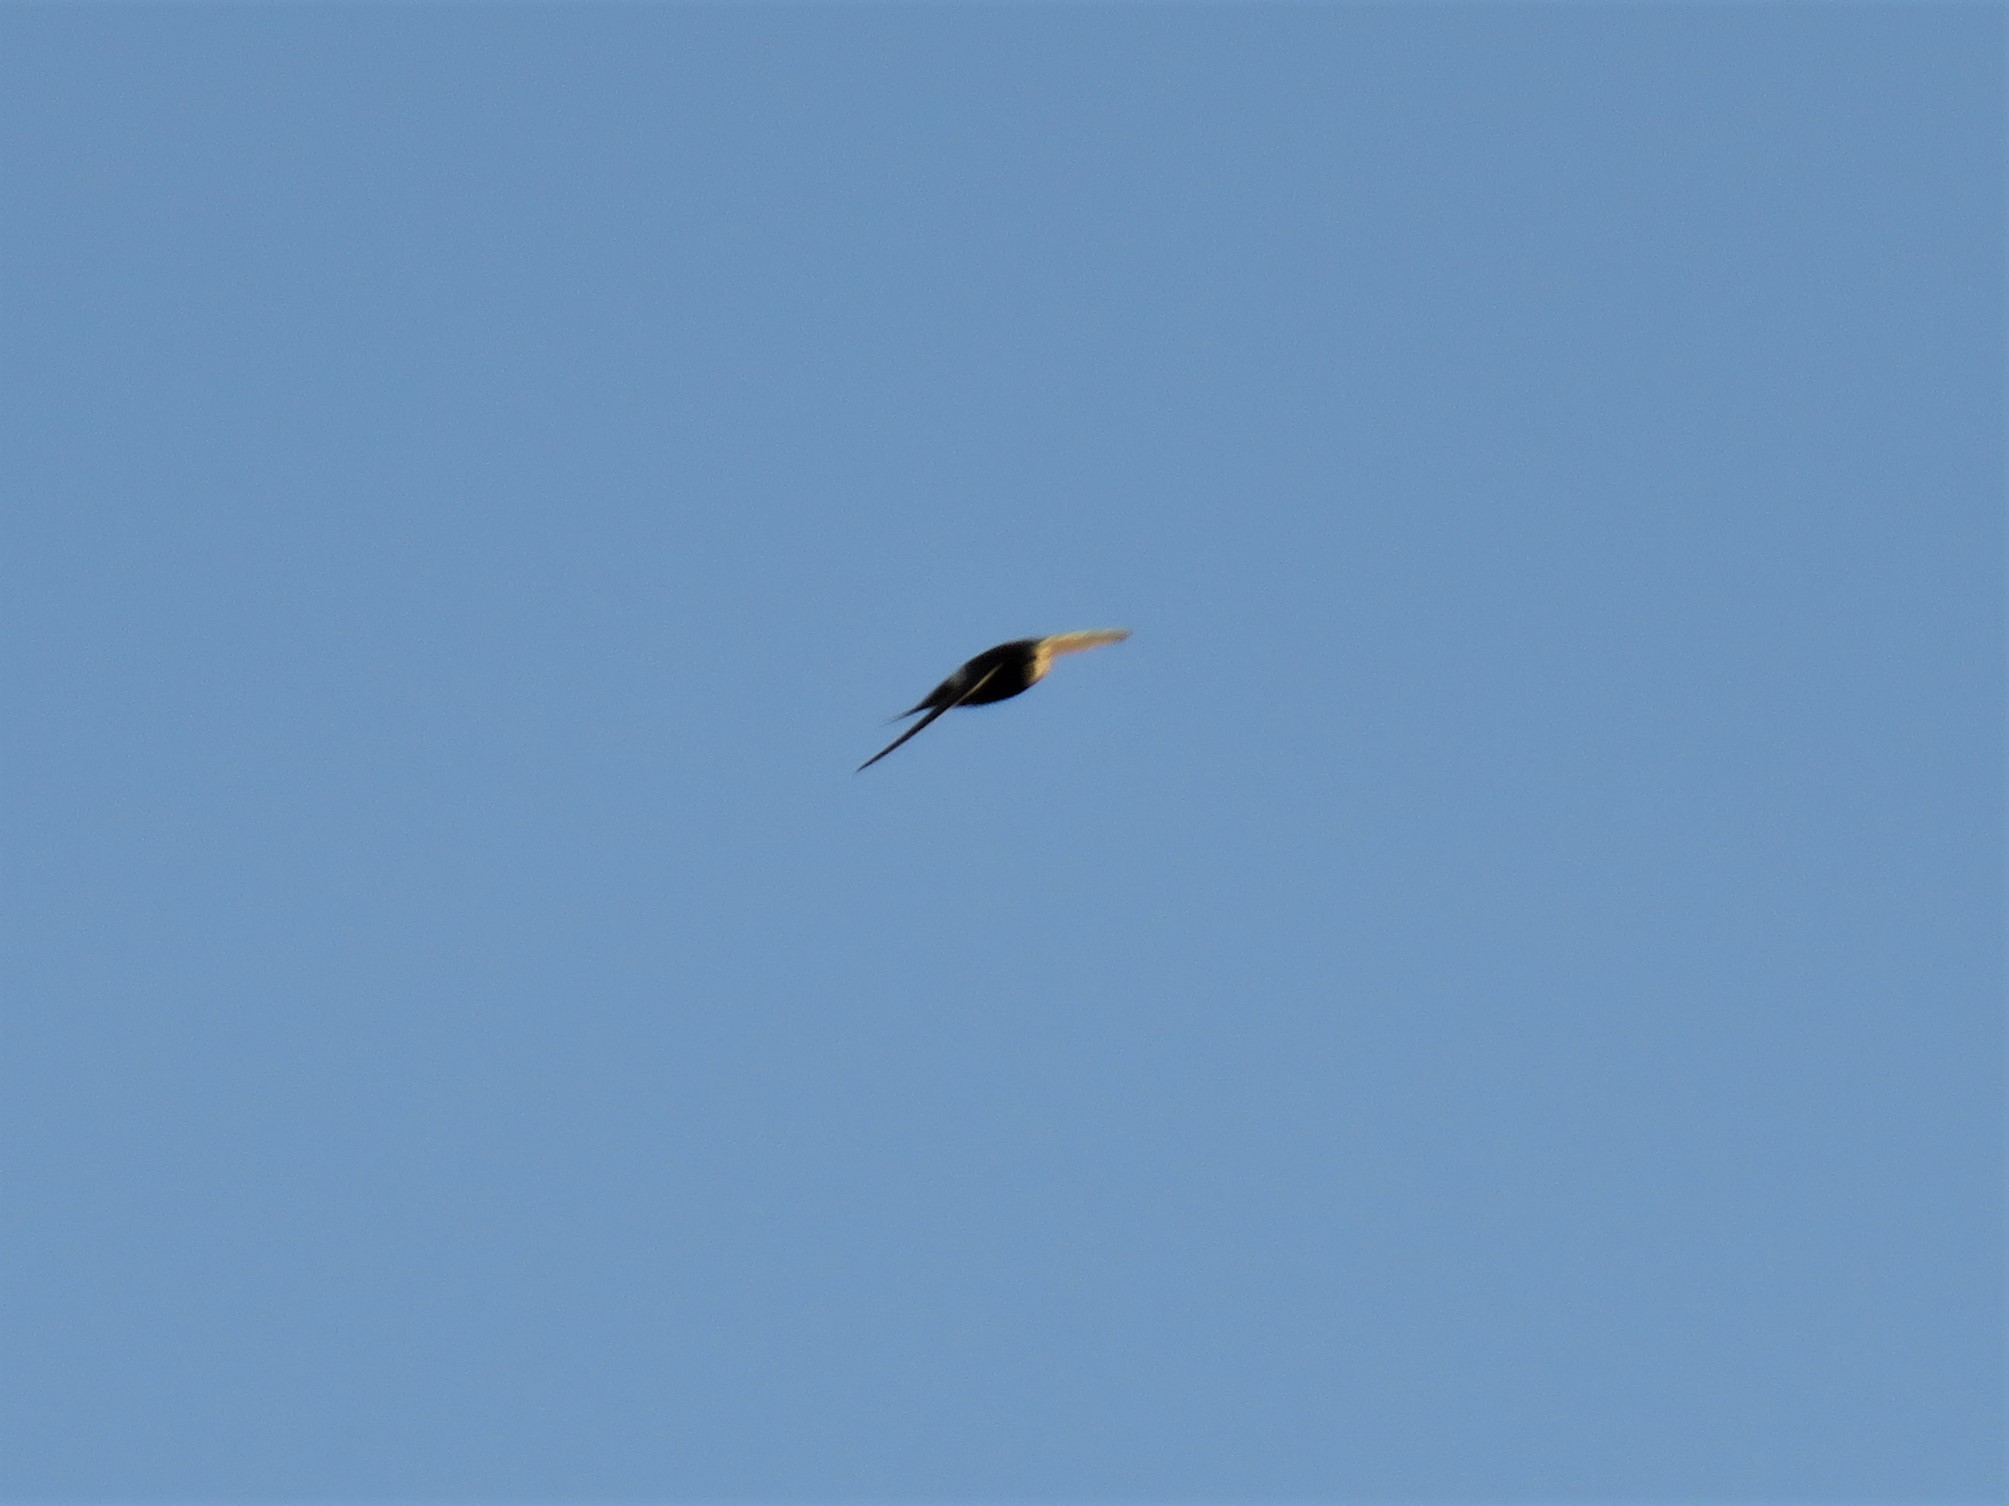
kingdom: Animalia
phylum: Chordata
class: Aves
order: Apodiformes
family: Apodidae
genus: Apus
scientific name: Apus caffer
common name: White-rumped swift
